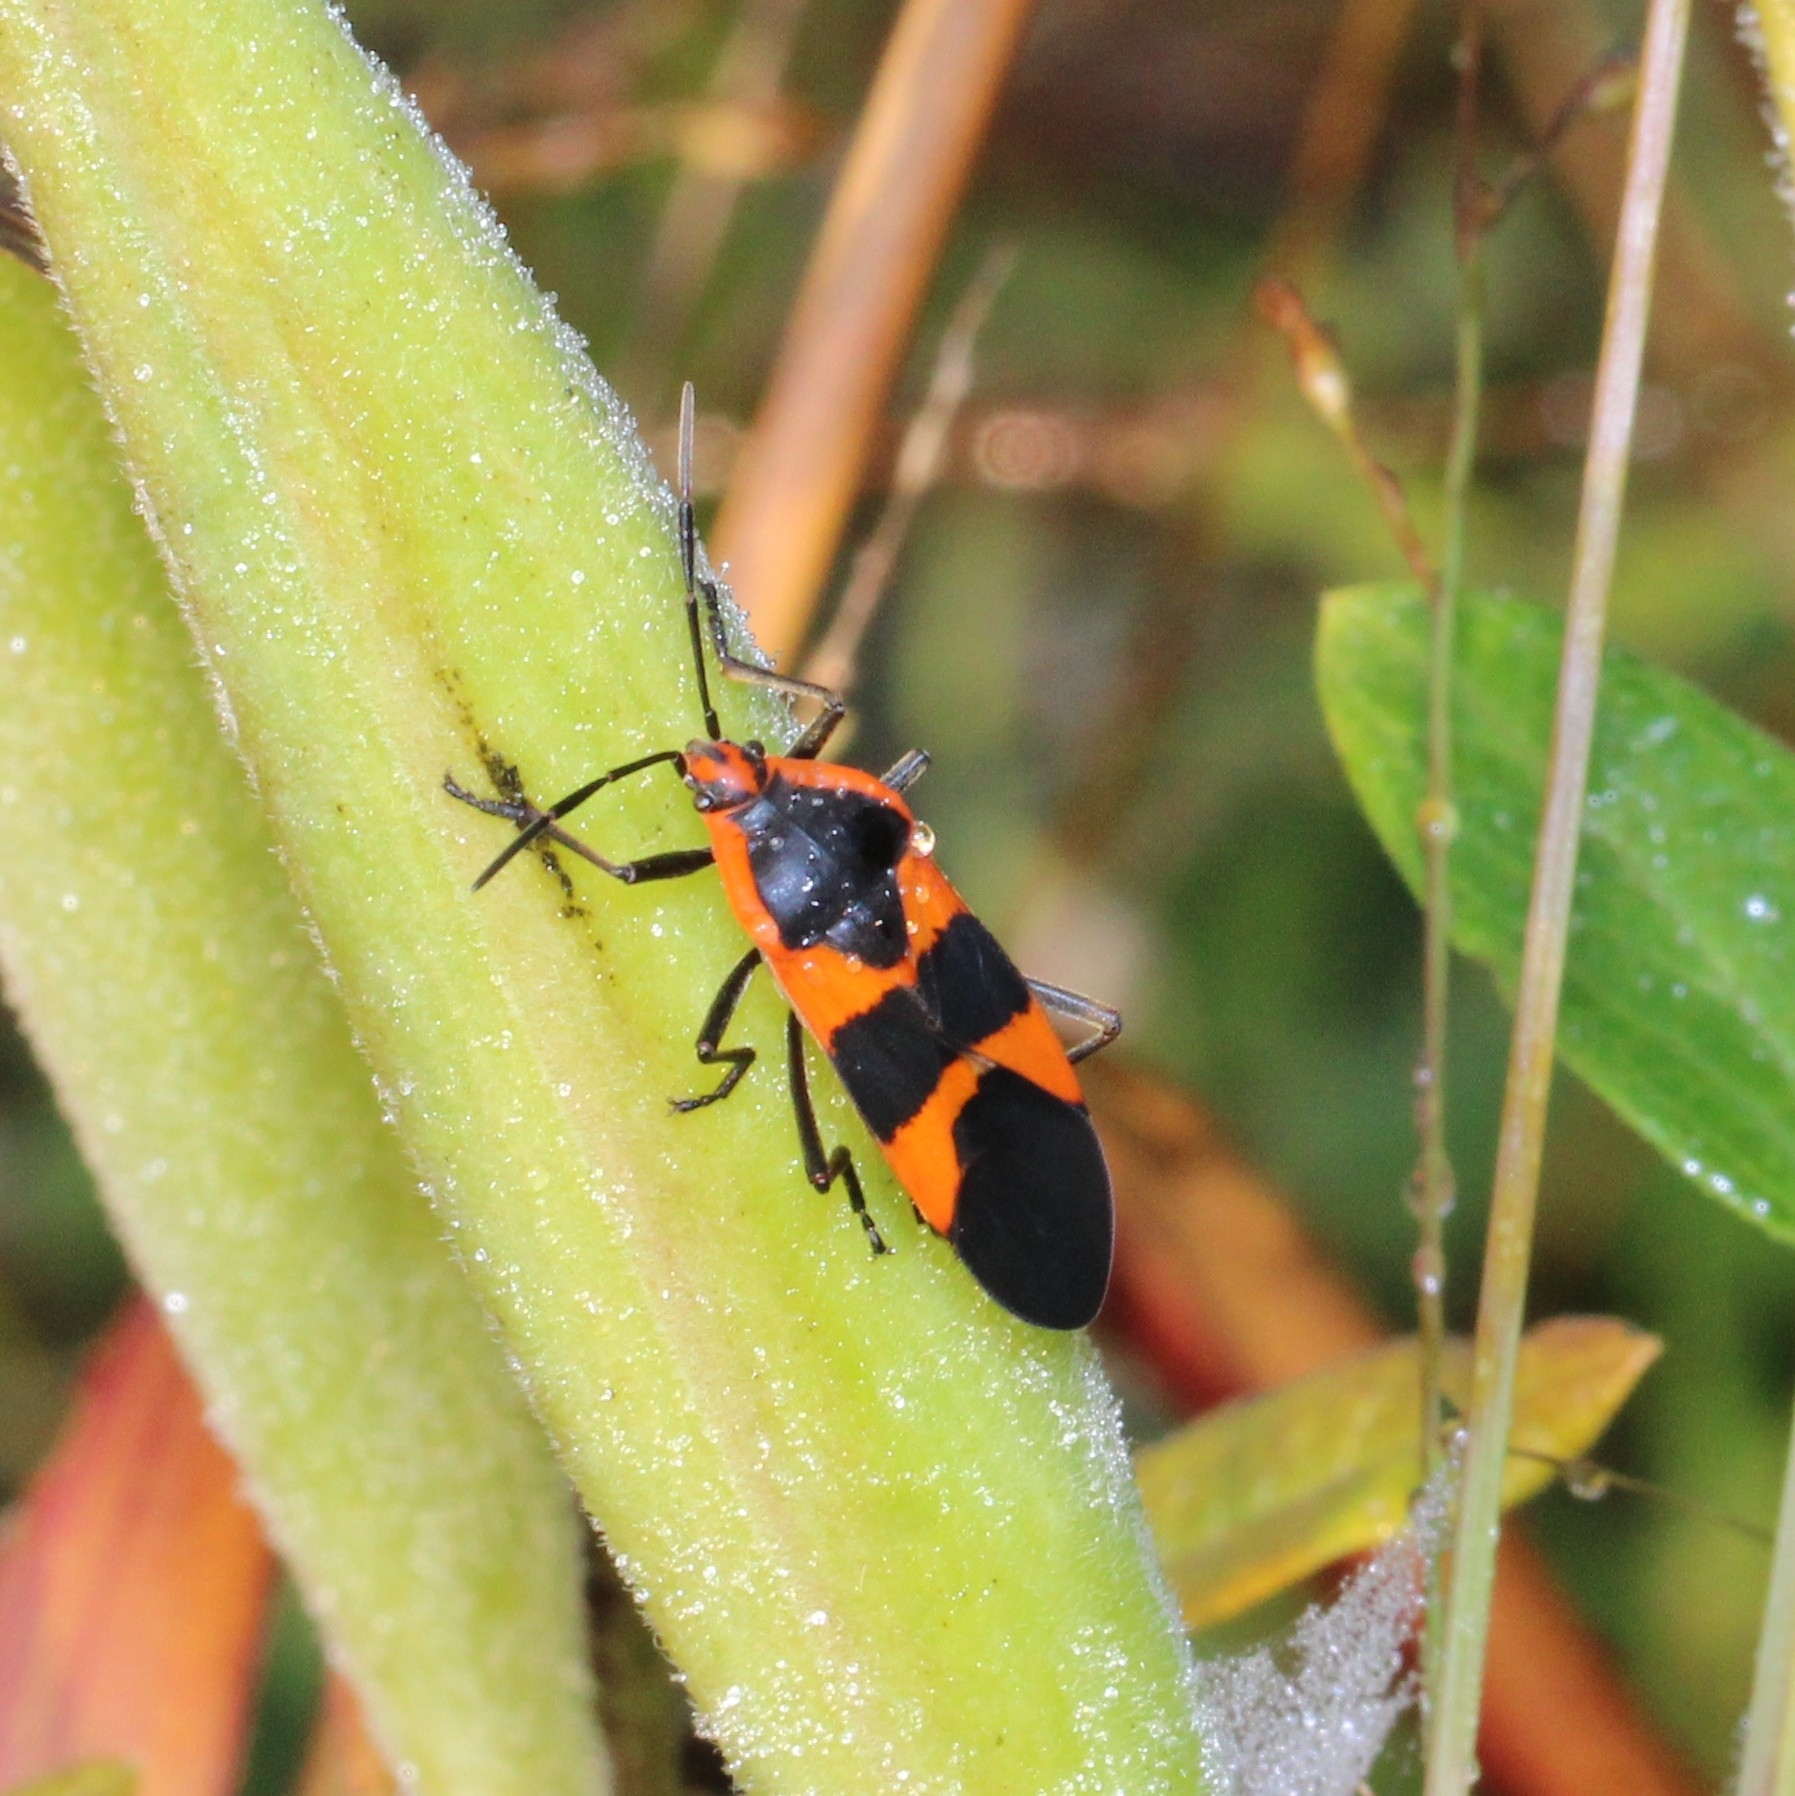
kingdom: Animalia
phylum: Arthropoda
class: Insecta
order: Hemiptera
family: Lygaeidae
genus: Oncopeltus
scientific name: Oncopeltus fasciatus
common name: Large milkweed bug
